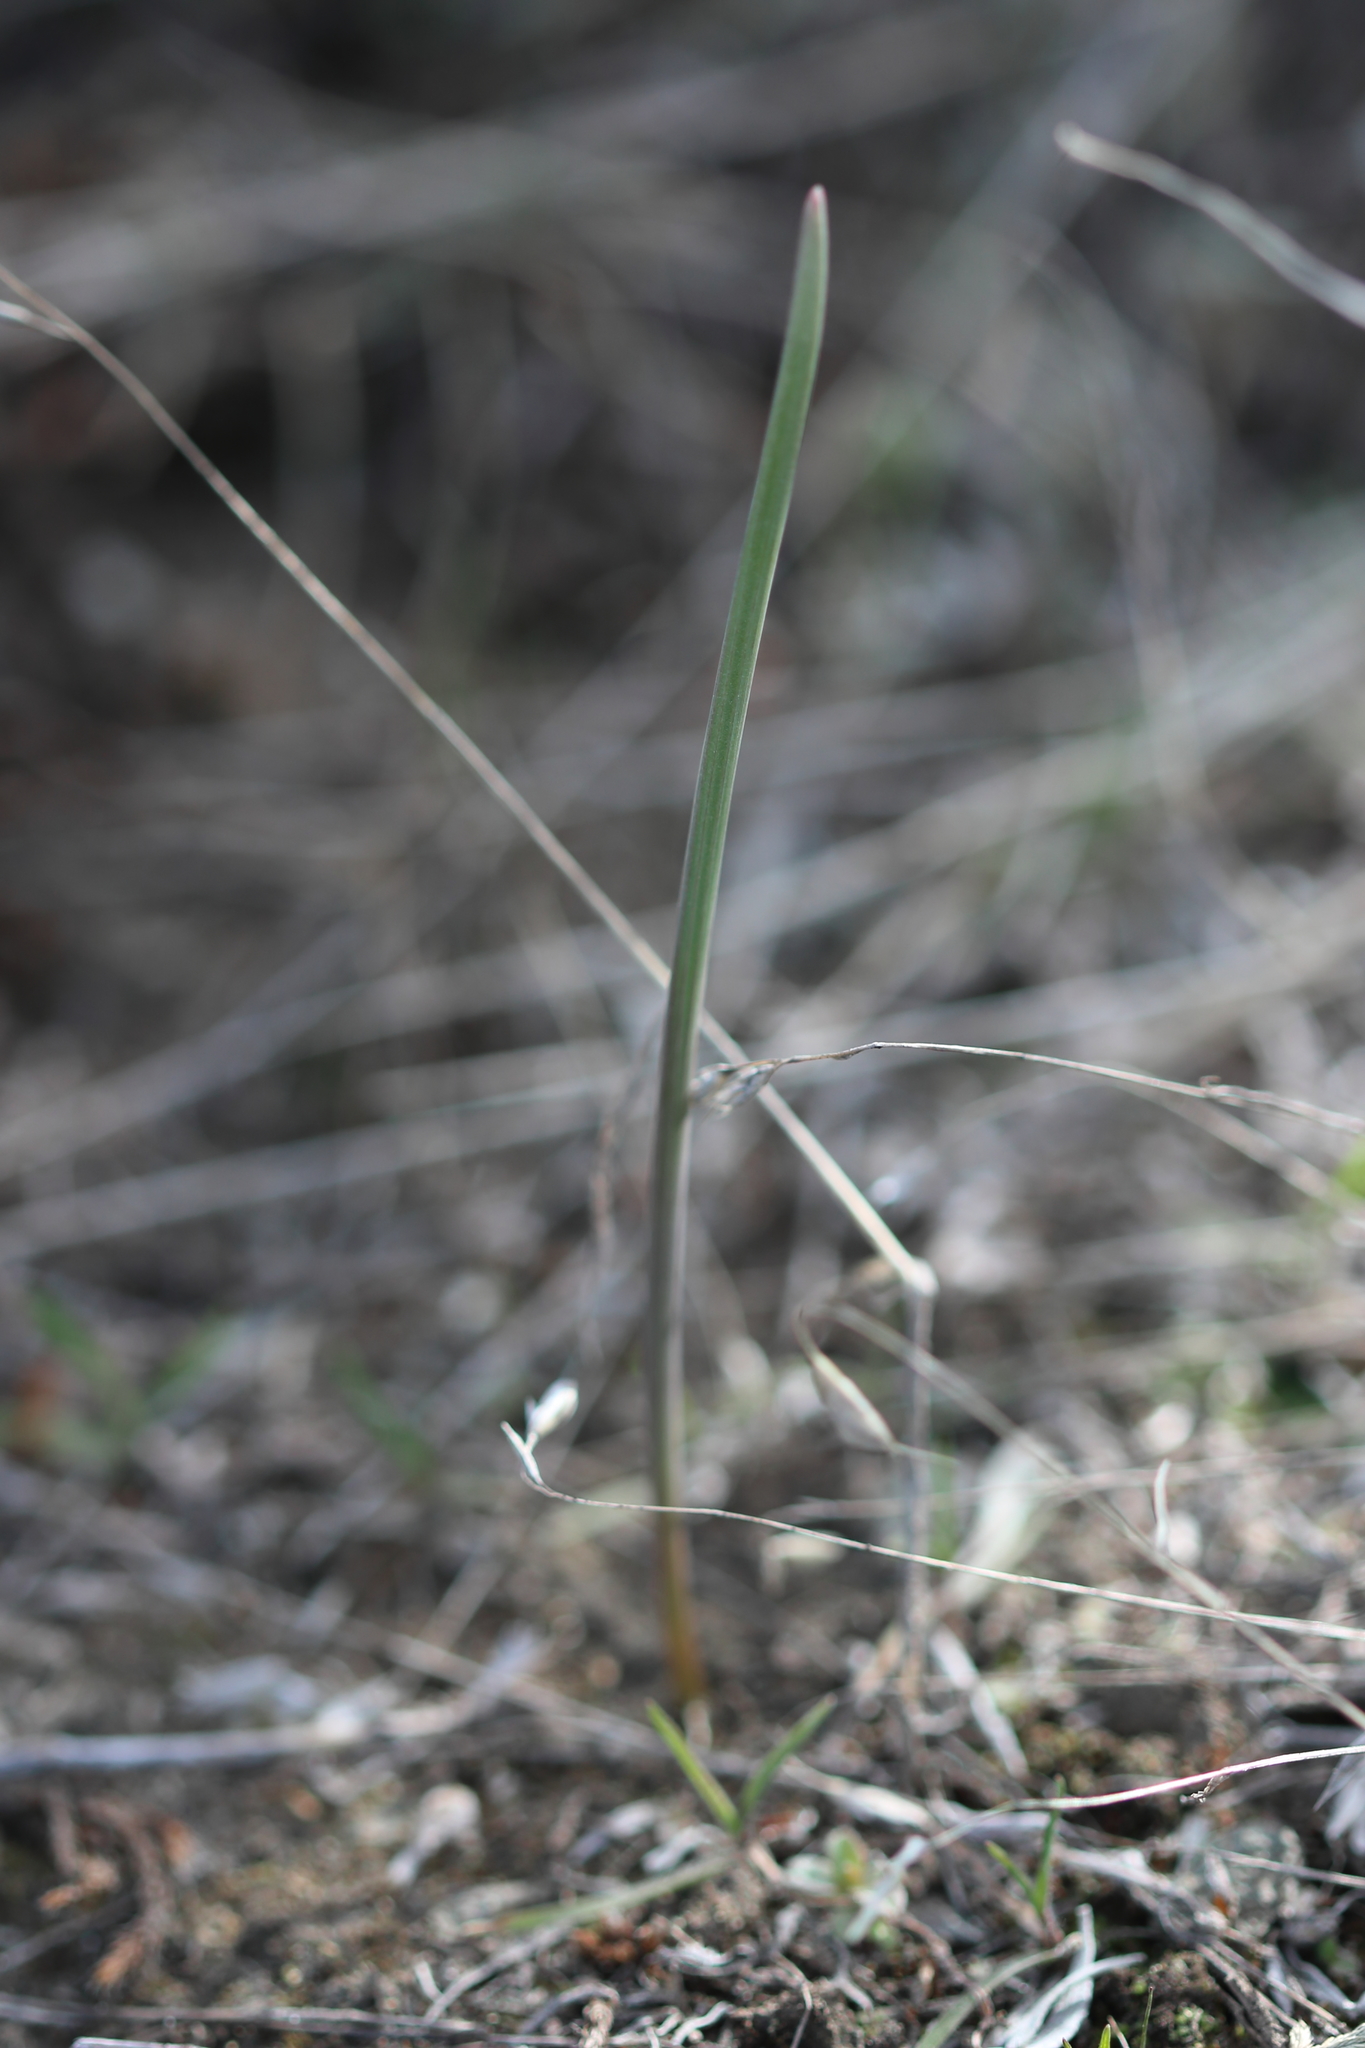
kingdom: Plantae
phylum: Tracheophyta
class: Liliopsida
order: Liliales
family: Liliaceae
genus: Calochortus
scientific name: Calochortus macrocarpus
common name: Green-band mariposa lily
